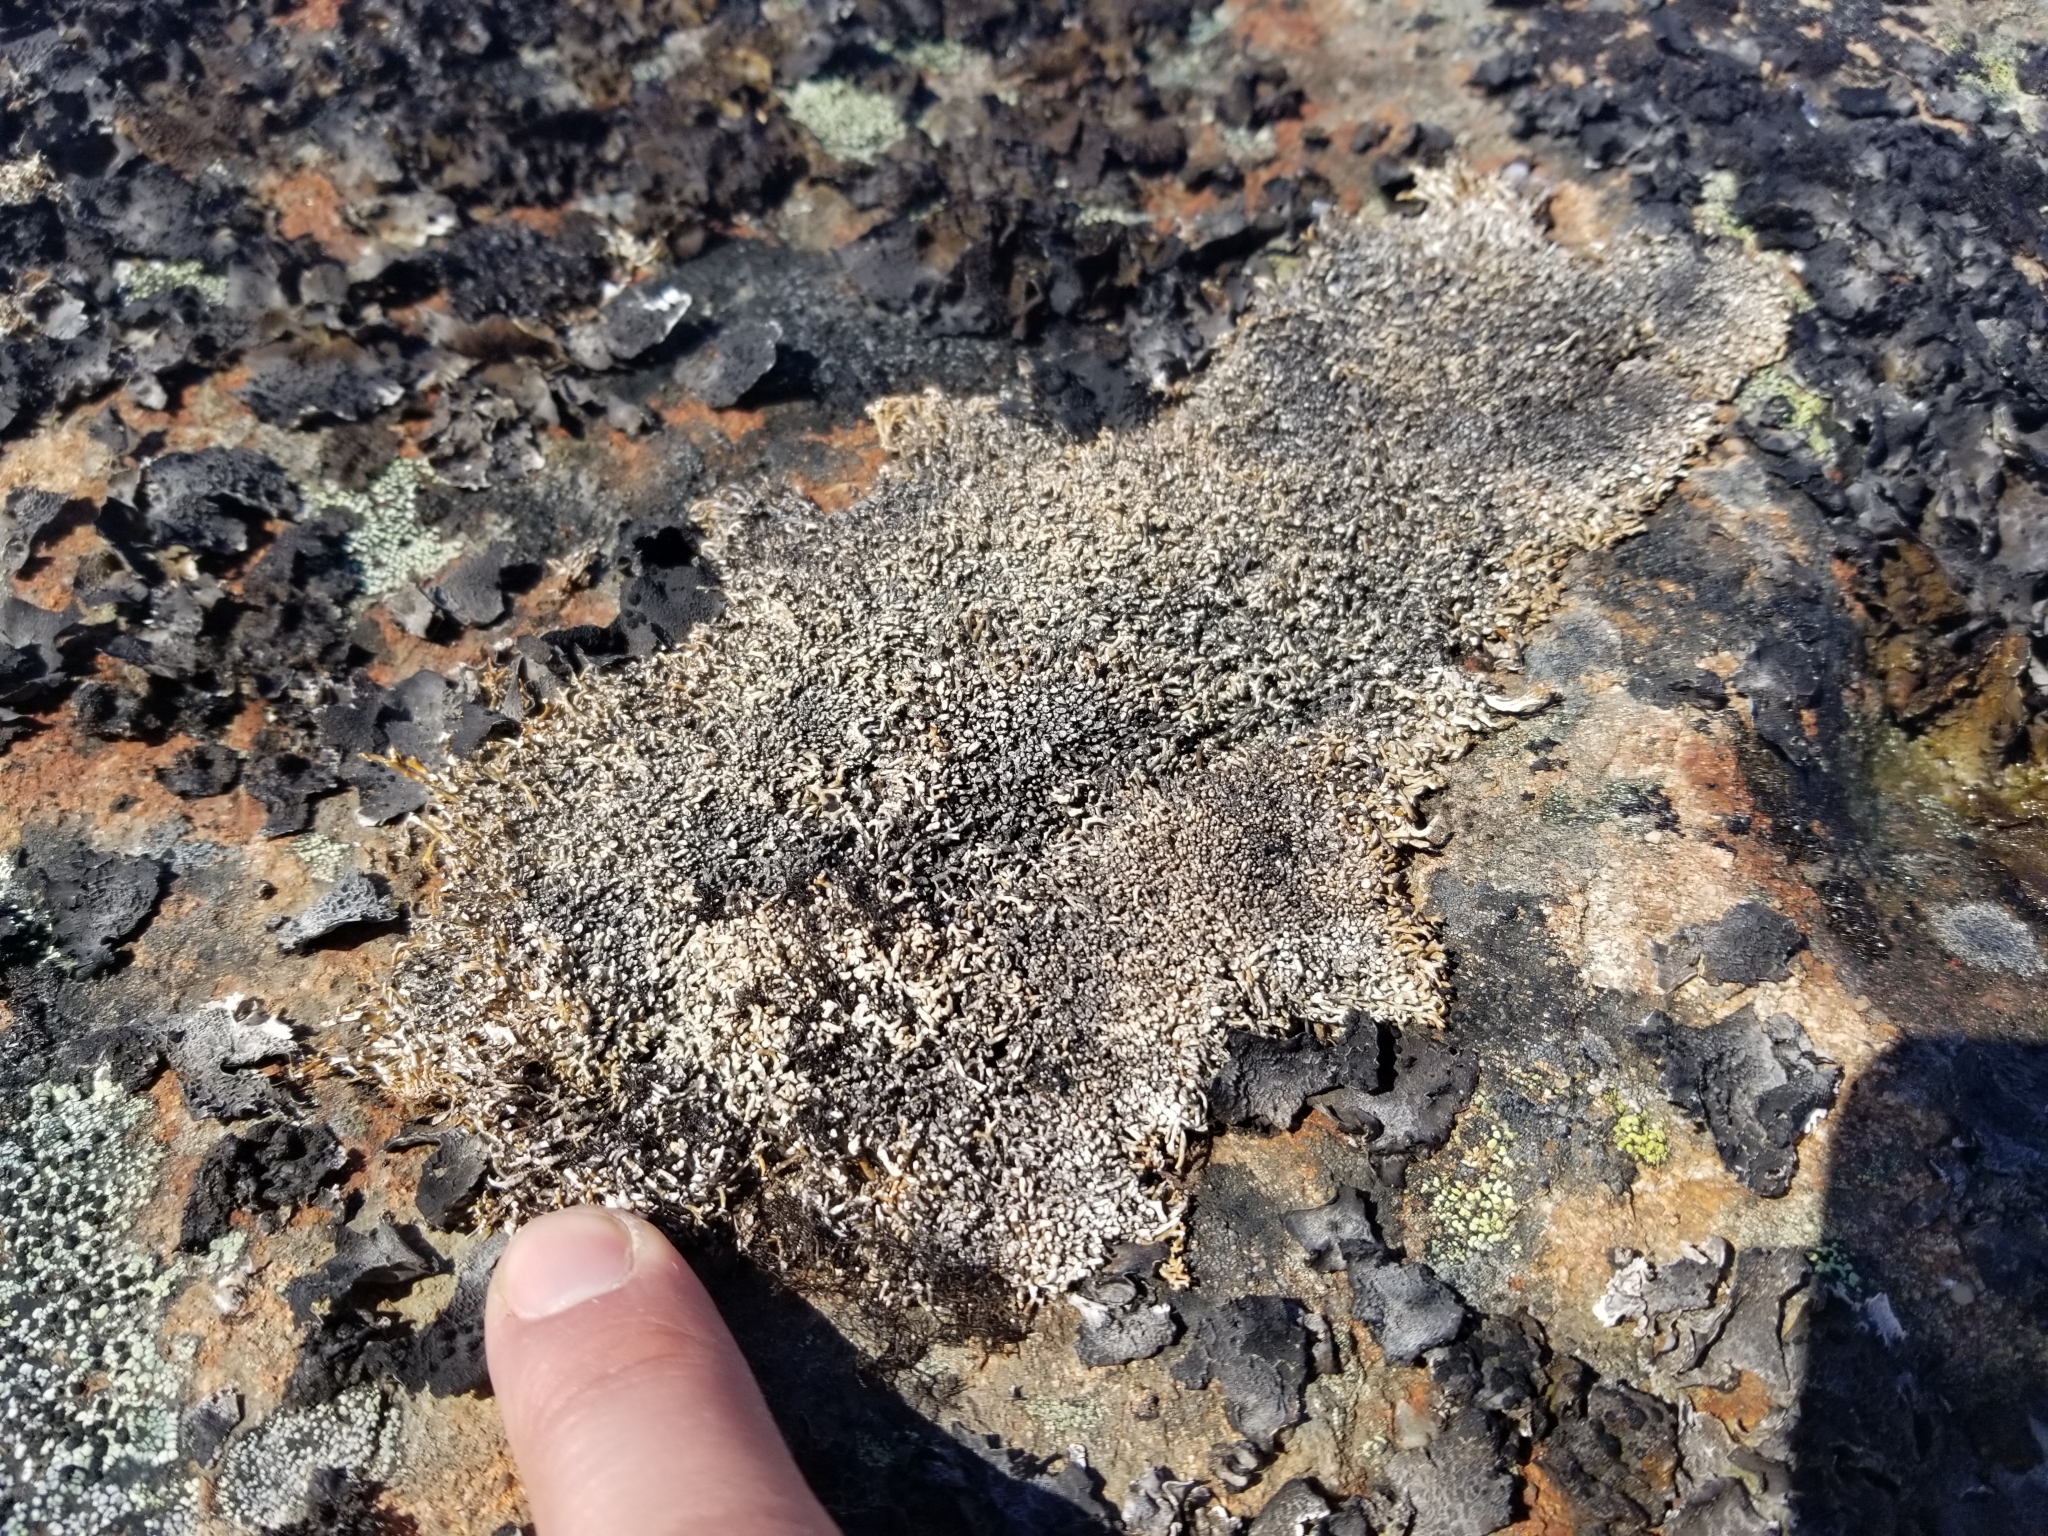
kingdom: Fungi
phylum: Ascomycota
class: Lecanoromycetes
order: Lecanorales
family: Sphaerophoraceae
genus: Sphaerophorus
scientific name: Sphaerophorus fragilis
